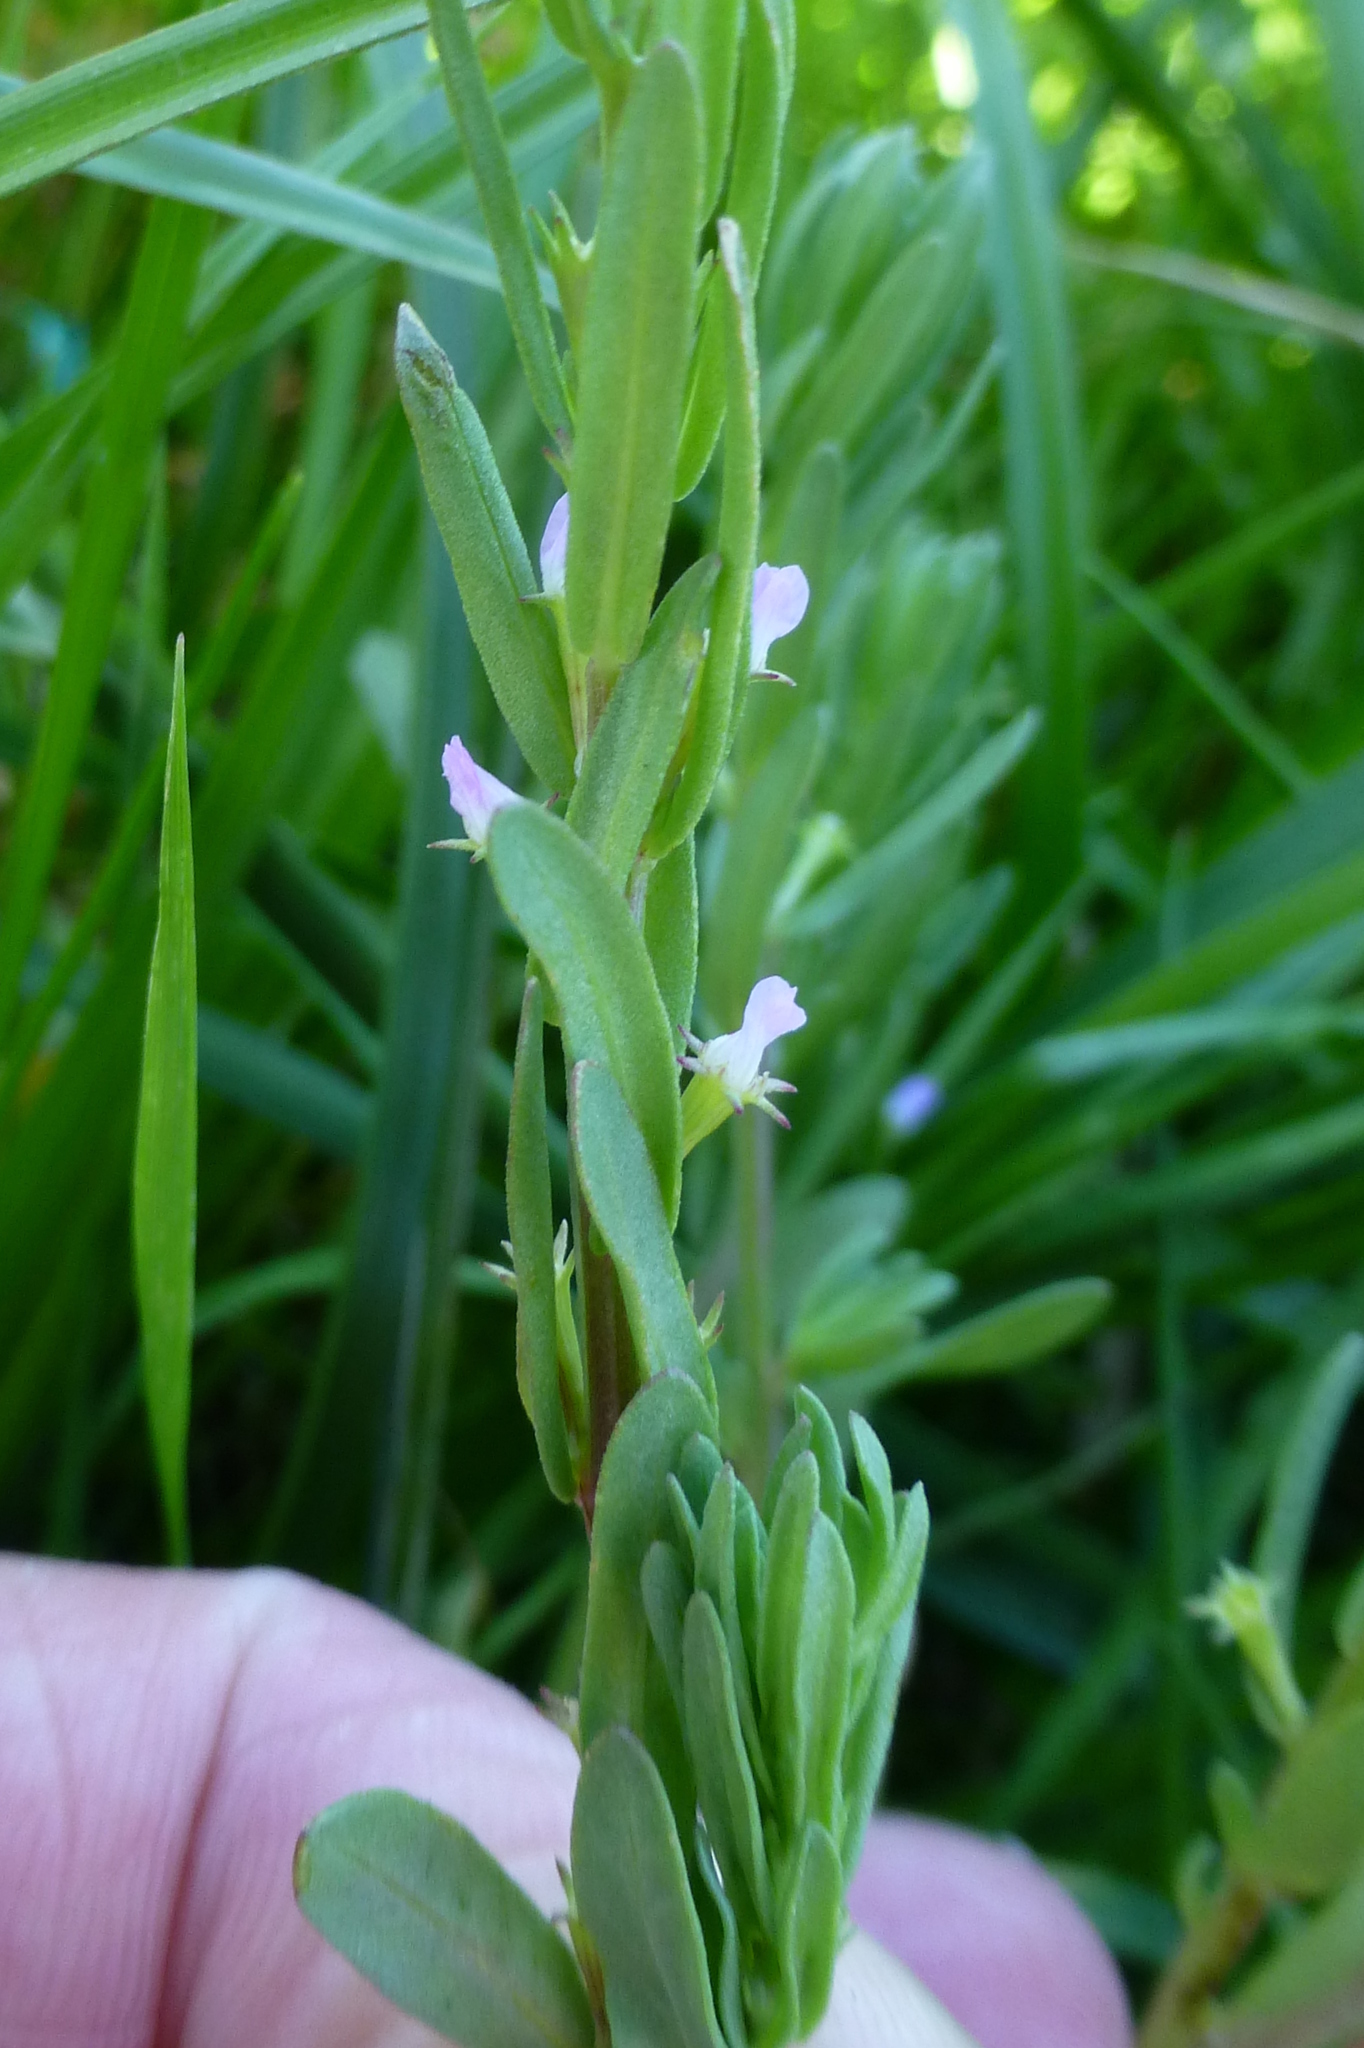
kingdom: Plantae
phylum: Tracheophyta
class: Magnoliopsida
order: Myrtales
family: Lythraceae
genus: Lythrum
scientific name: Lythrum hyssopifolia
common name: Grass-poly
